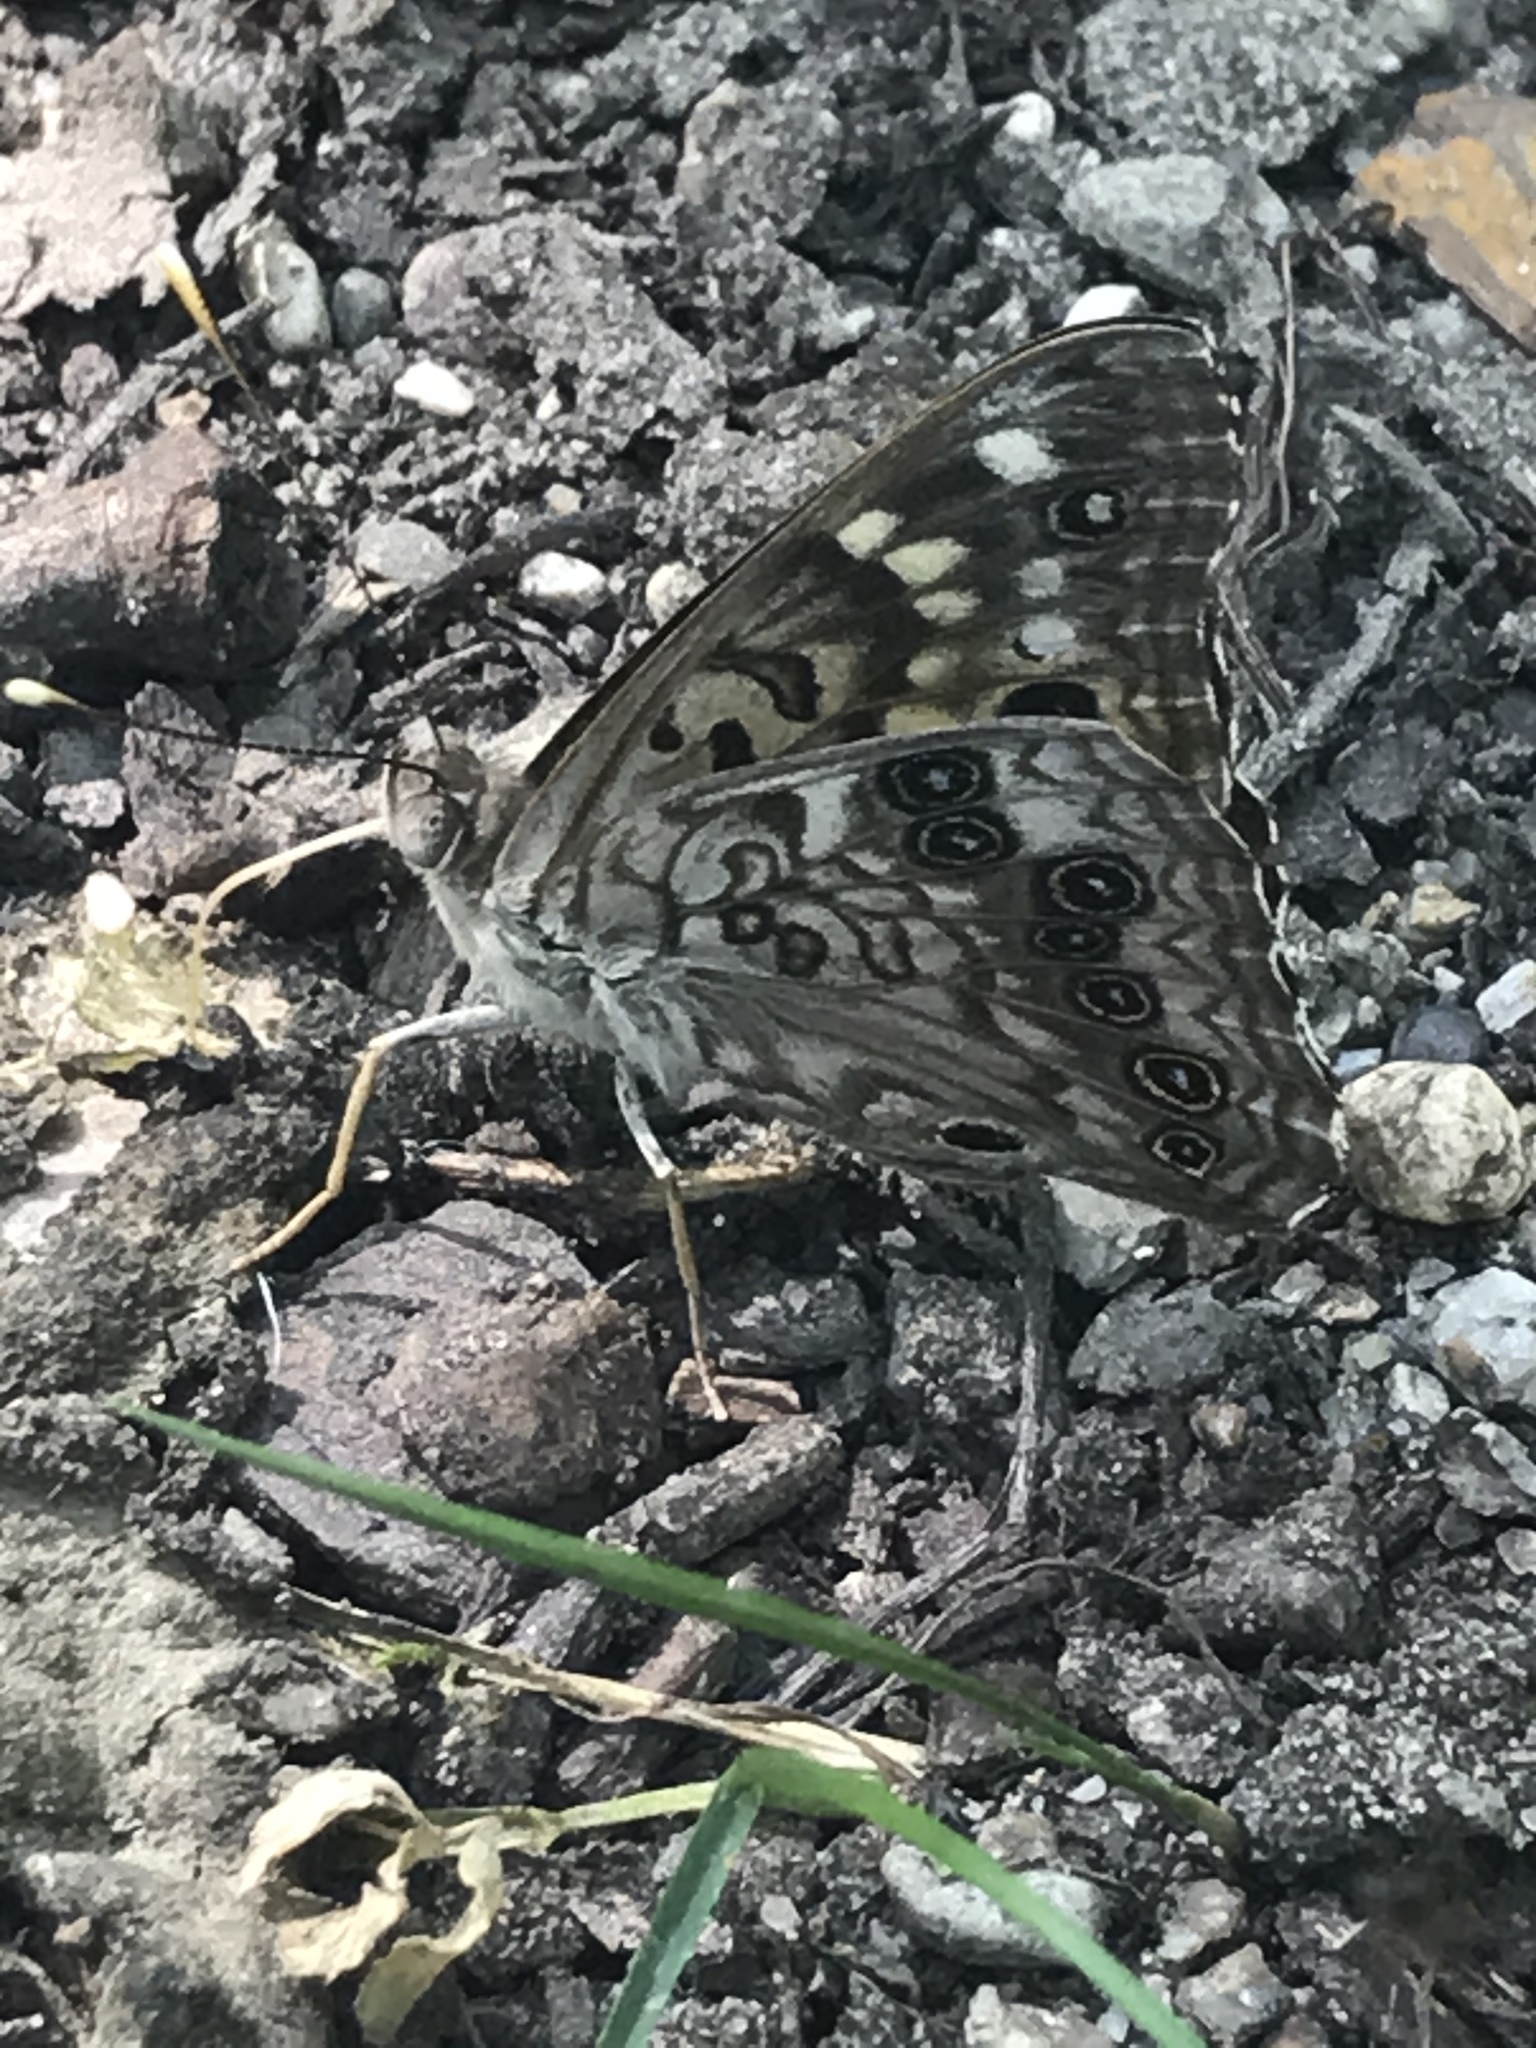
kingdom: Animalia
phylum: Arthropoda
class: Insecta
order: Lepidoptera
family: Nymphalidae
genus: Asterocampa
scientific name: Asterocampa celtis
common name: Hackberry emperor
